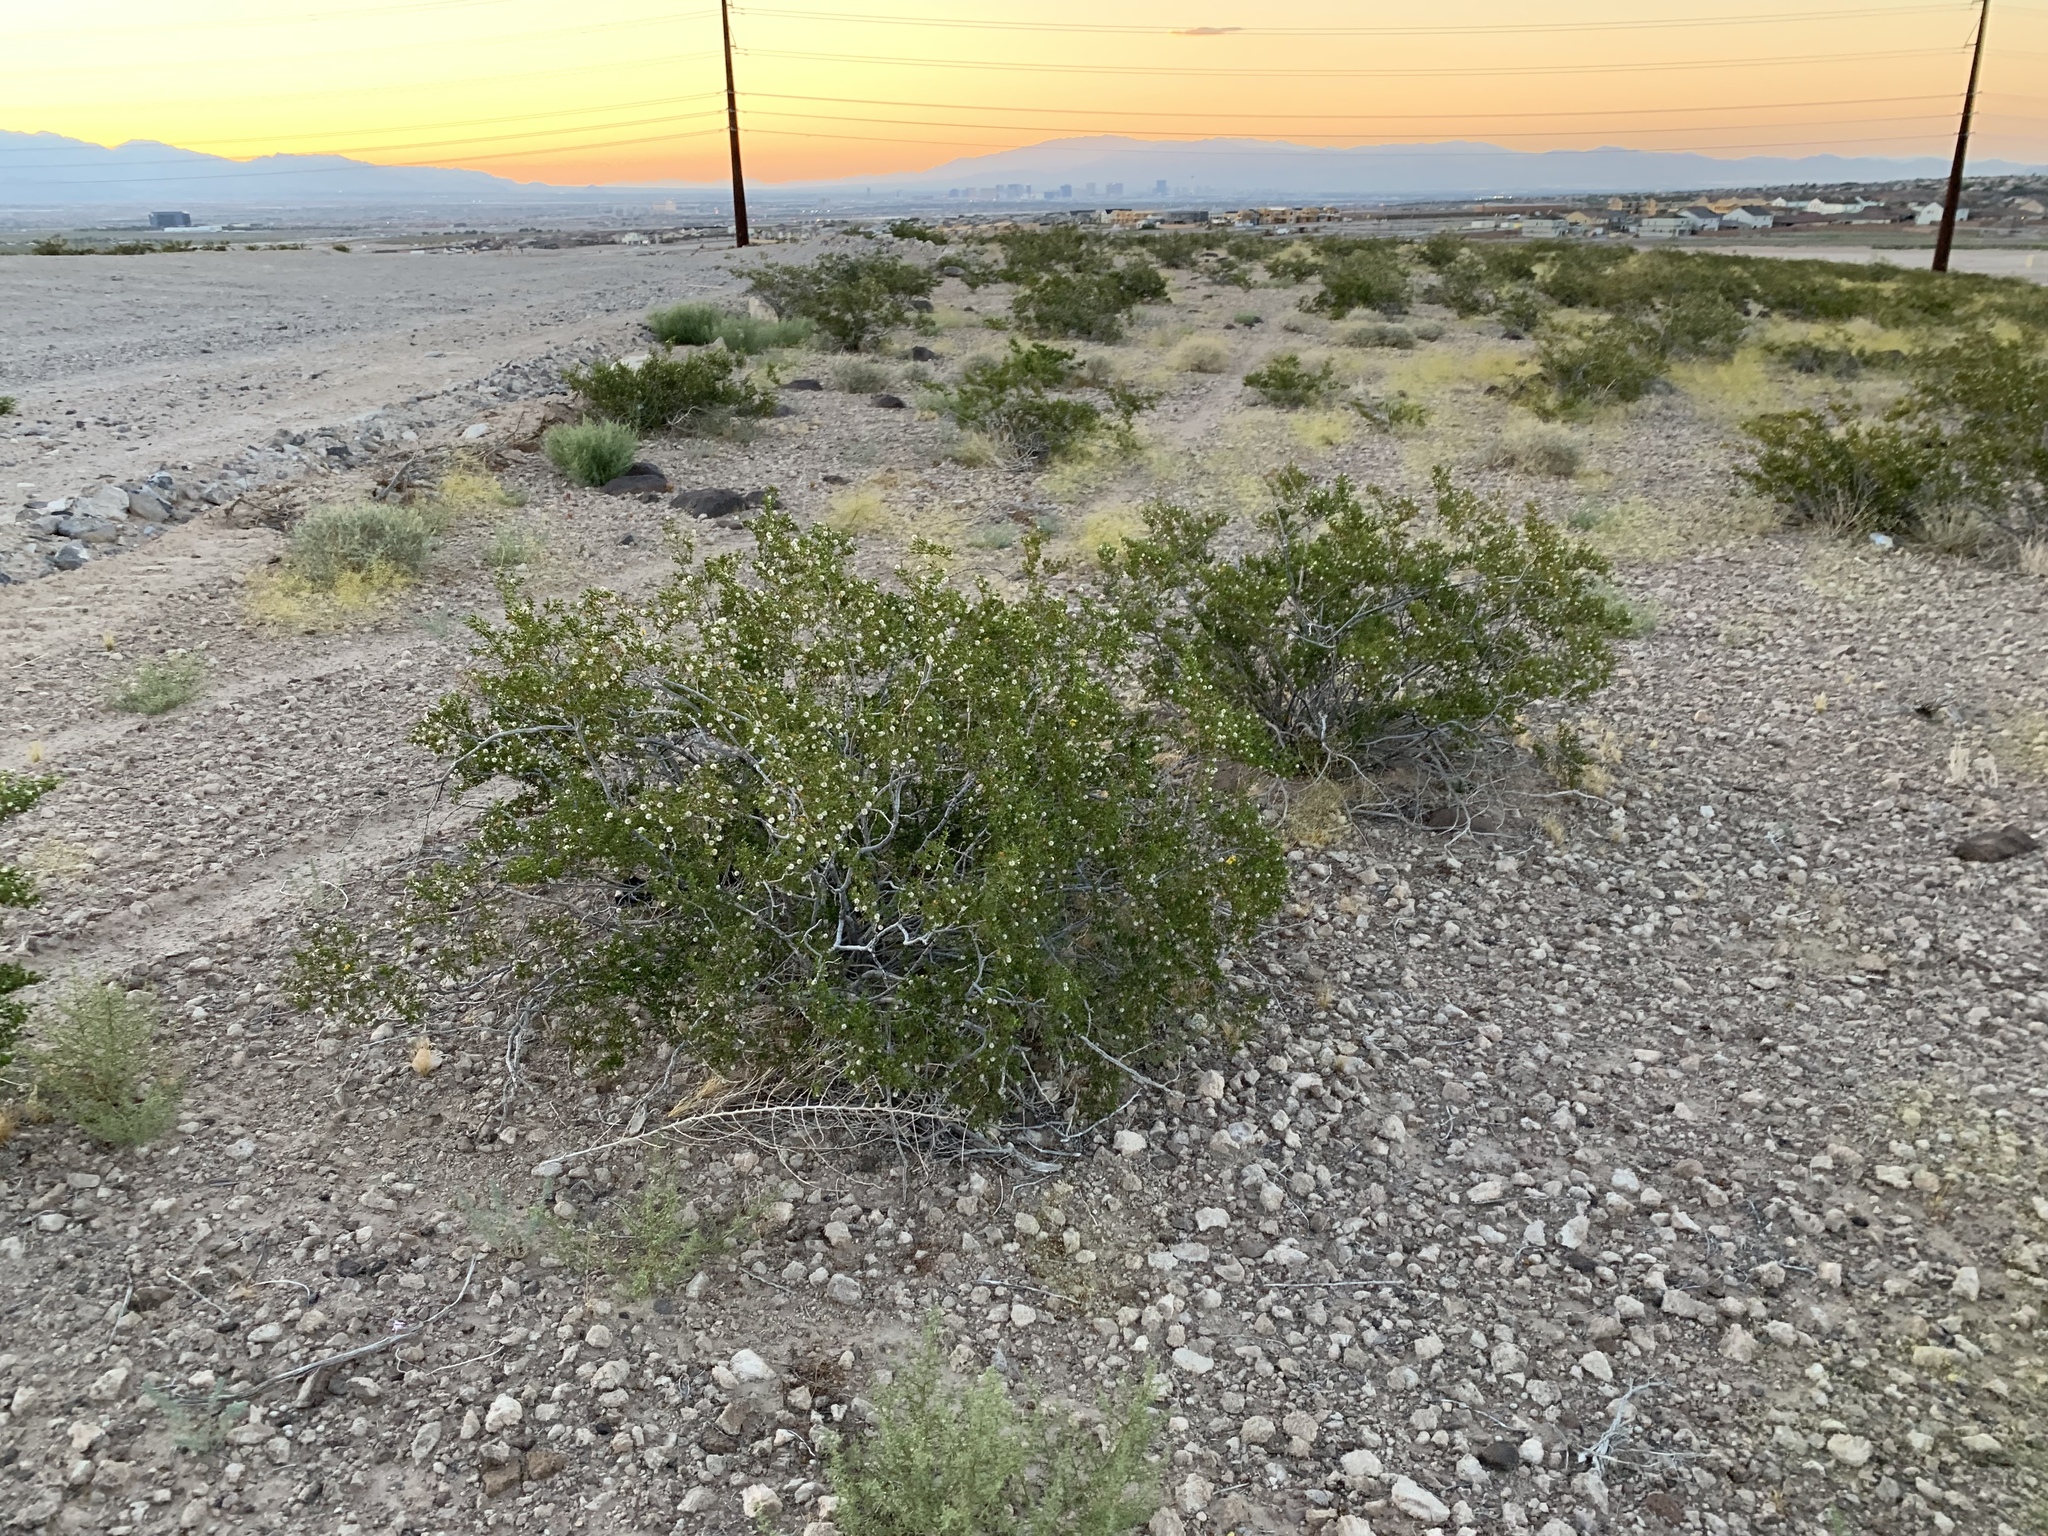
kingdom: Plantae
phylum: Tracheophyta
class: Magnoliopsida
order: Zygophyllales
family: Zygophyllaceae
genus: Larrea
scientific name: Larrea tridentata
